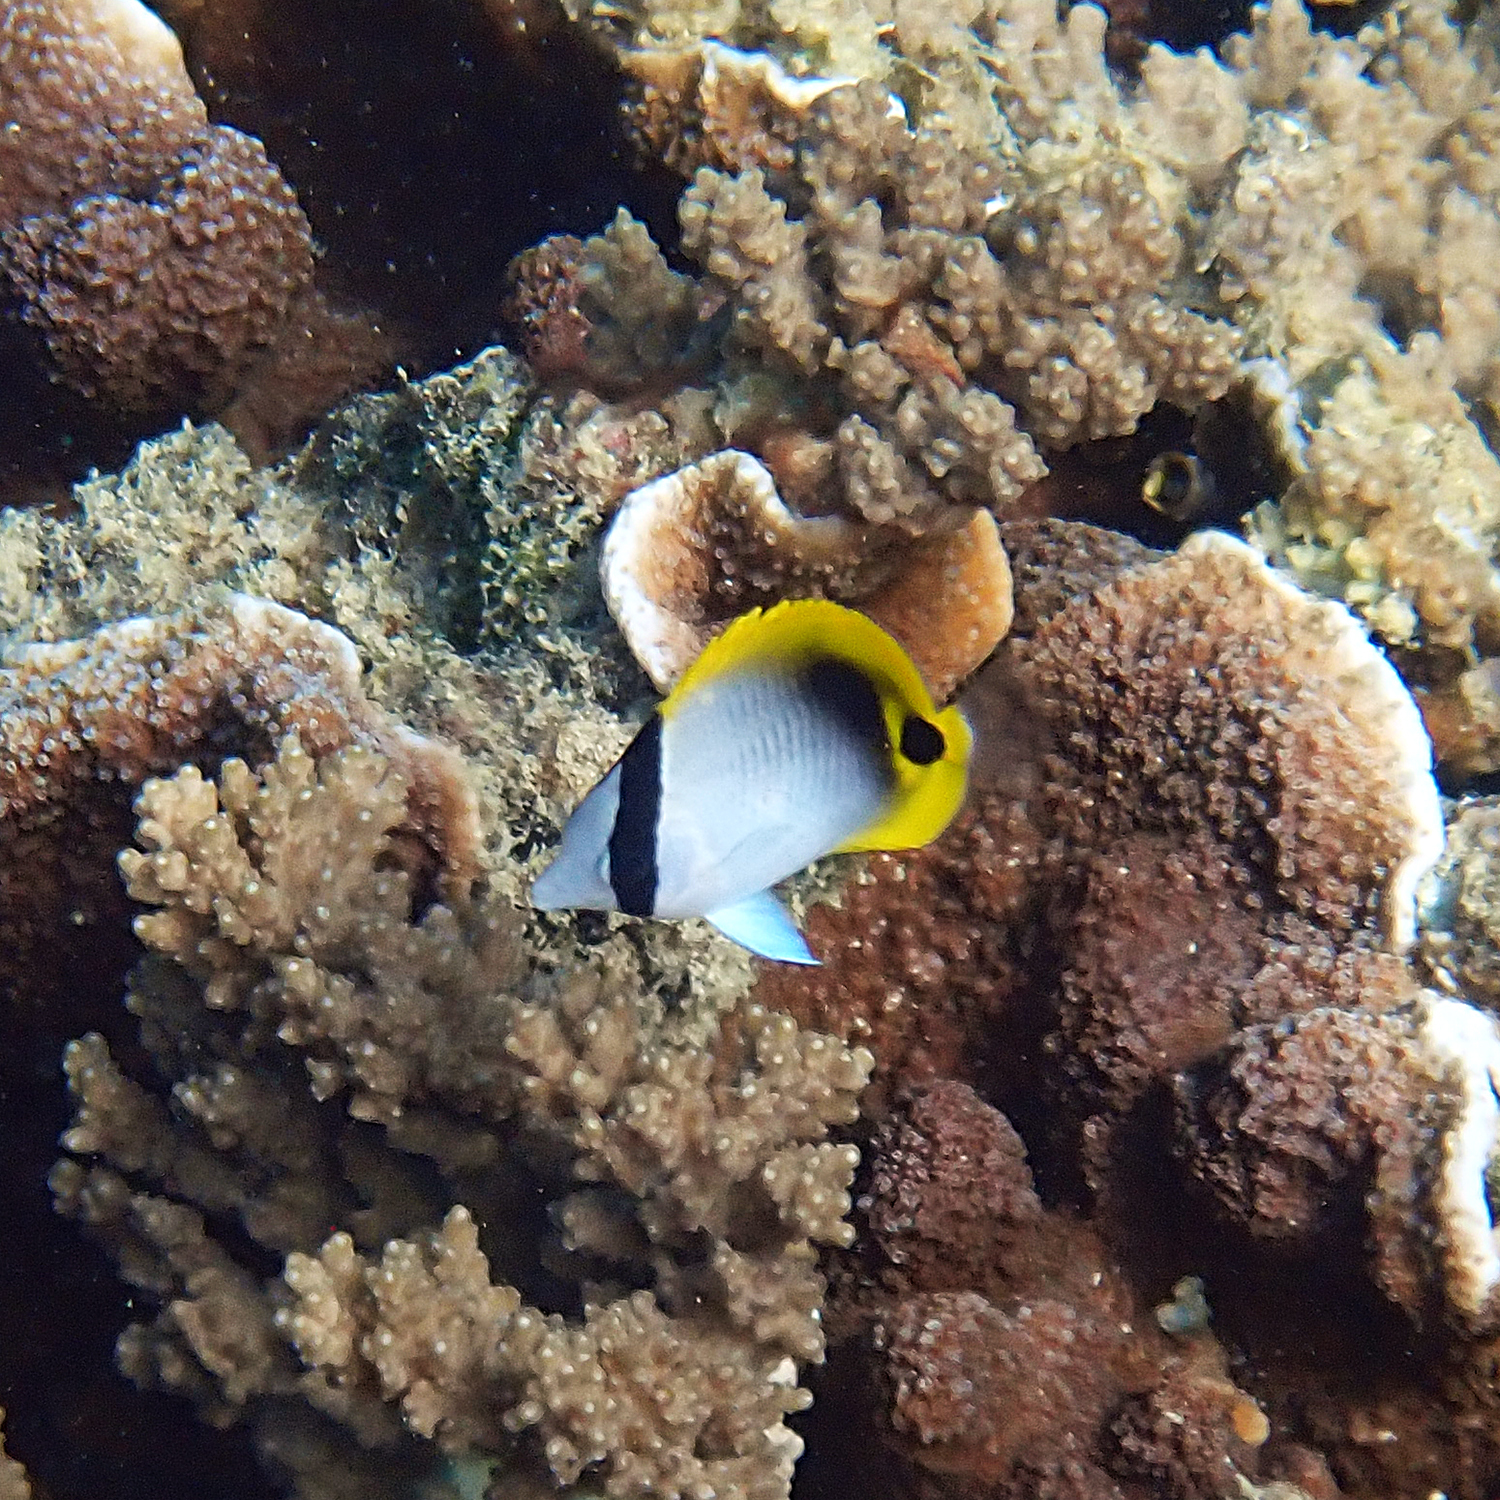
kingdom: Animalia
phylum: Chordata
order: Perciformes
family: Chaetodontidae
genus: Chaetodon
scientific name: Chaetodon lineolatus
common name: Lined butterflyfish
